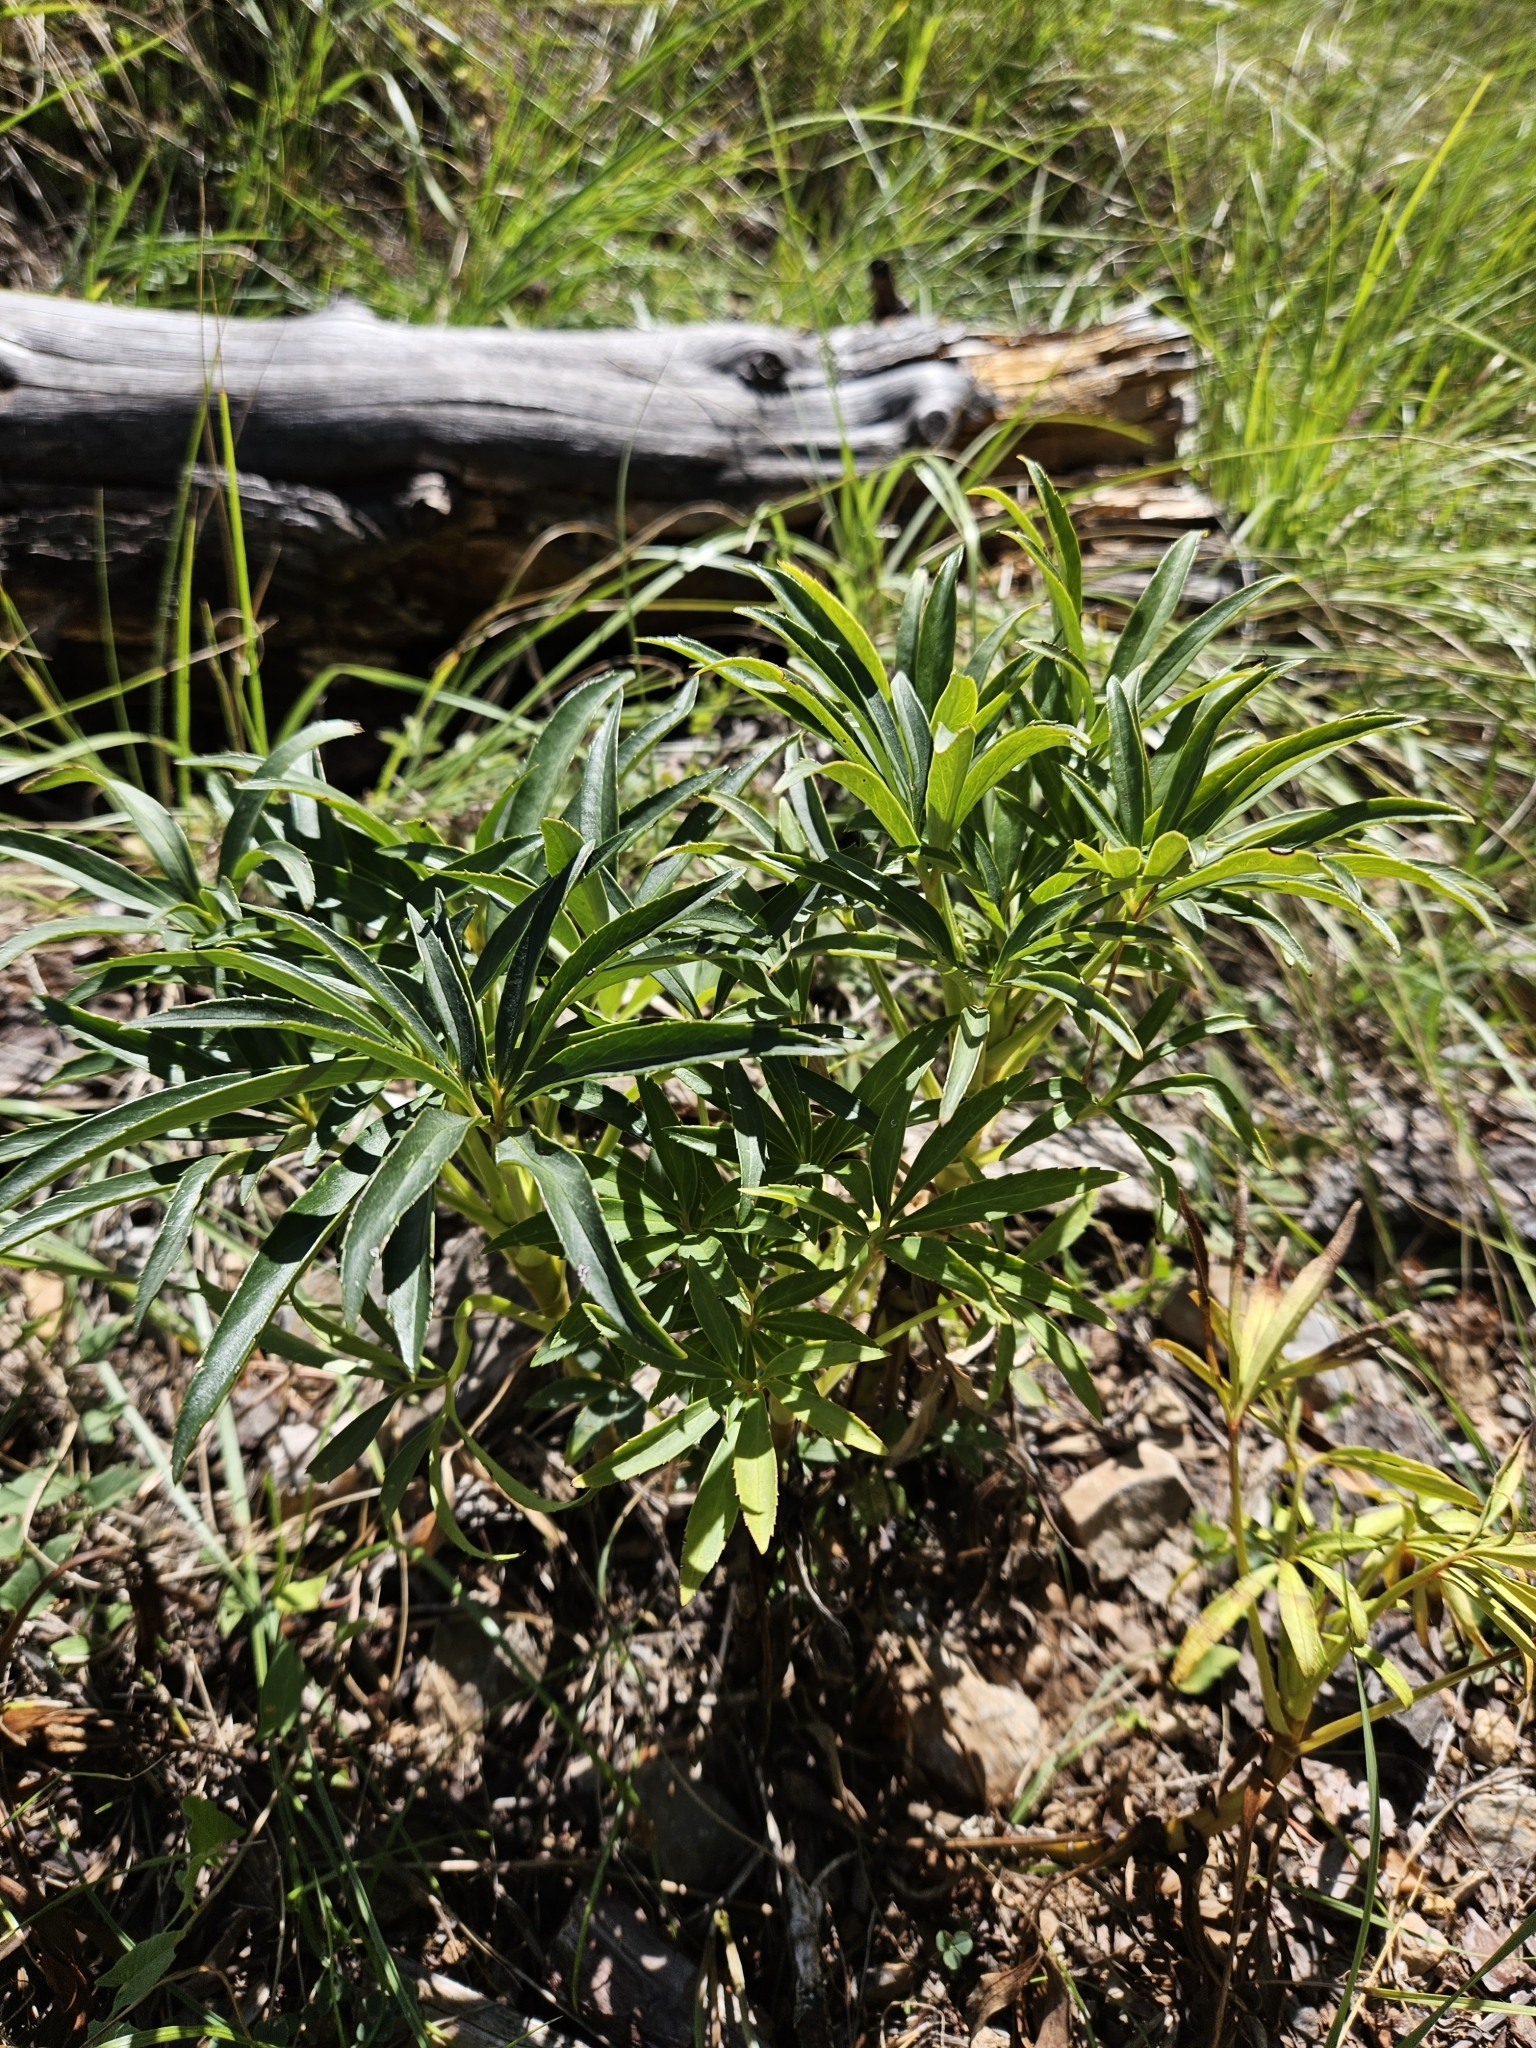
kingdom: Plantae
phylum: Tracheophyta
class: Magnoliopsida
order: Ranunculales
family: Ranunculaceae
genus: Helleborus
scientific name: Helleborus foetidus
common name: Stinking hellebore
